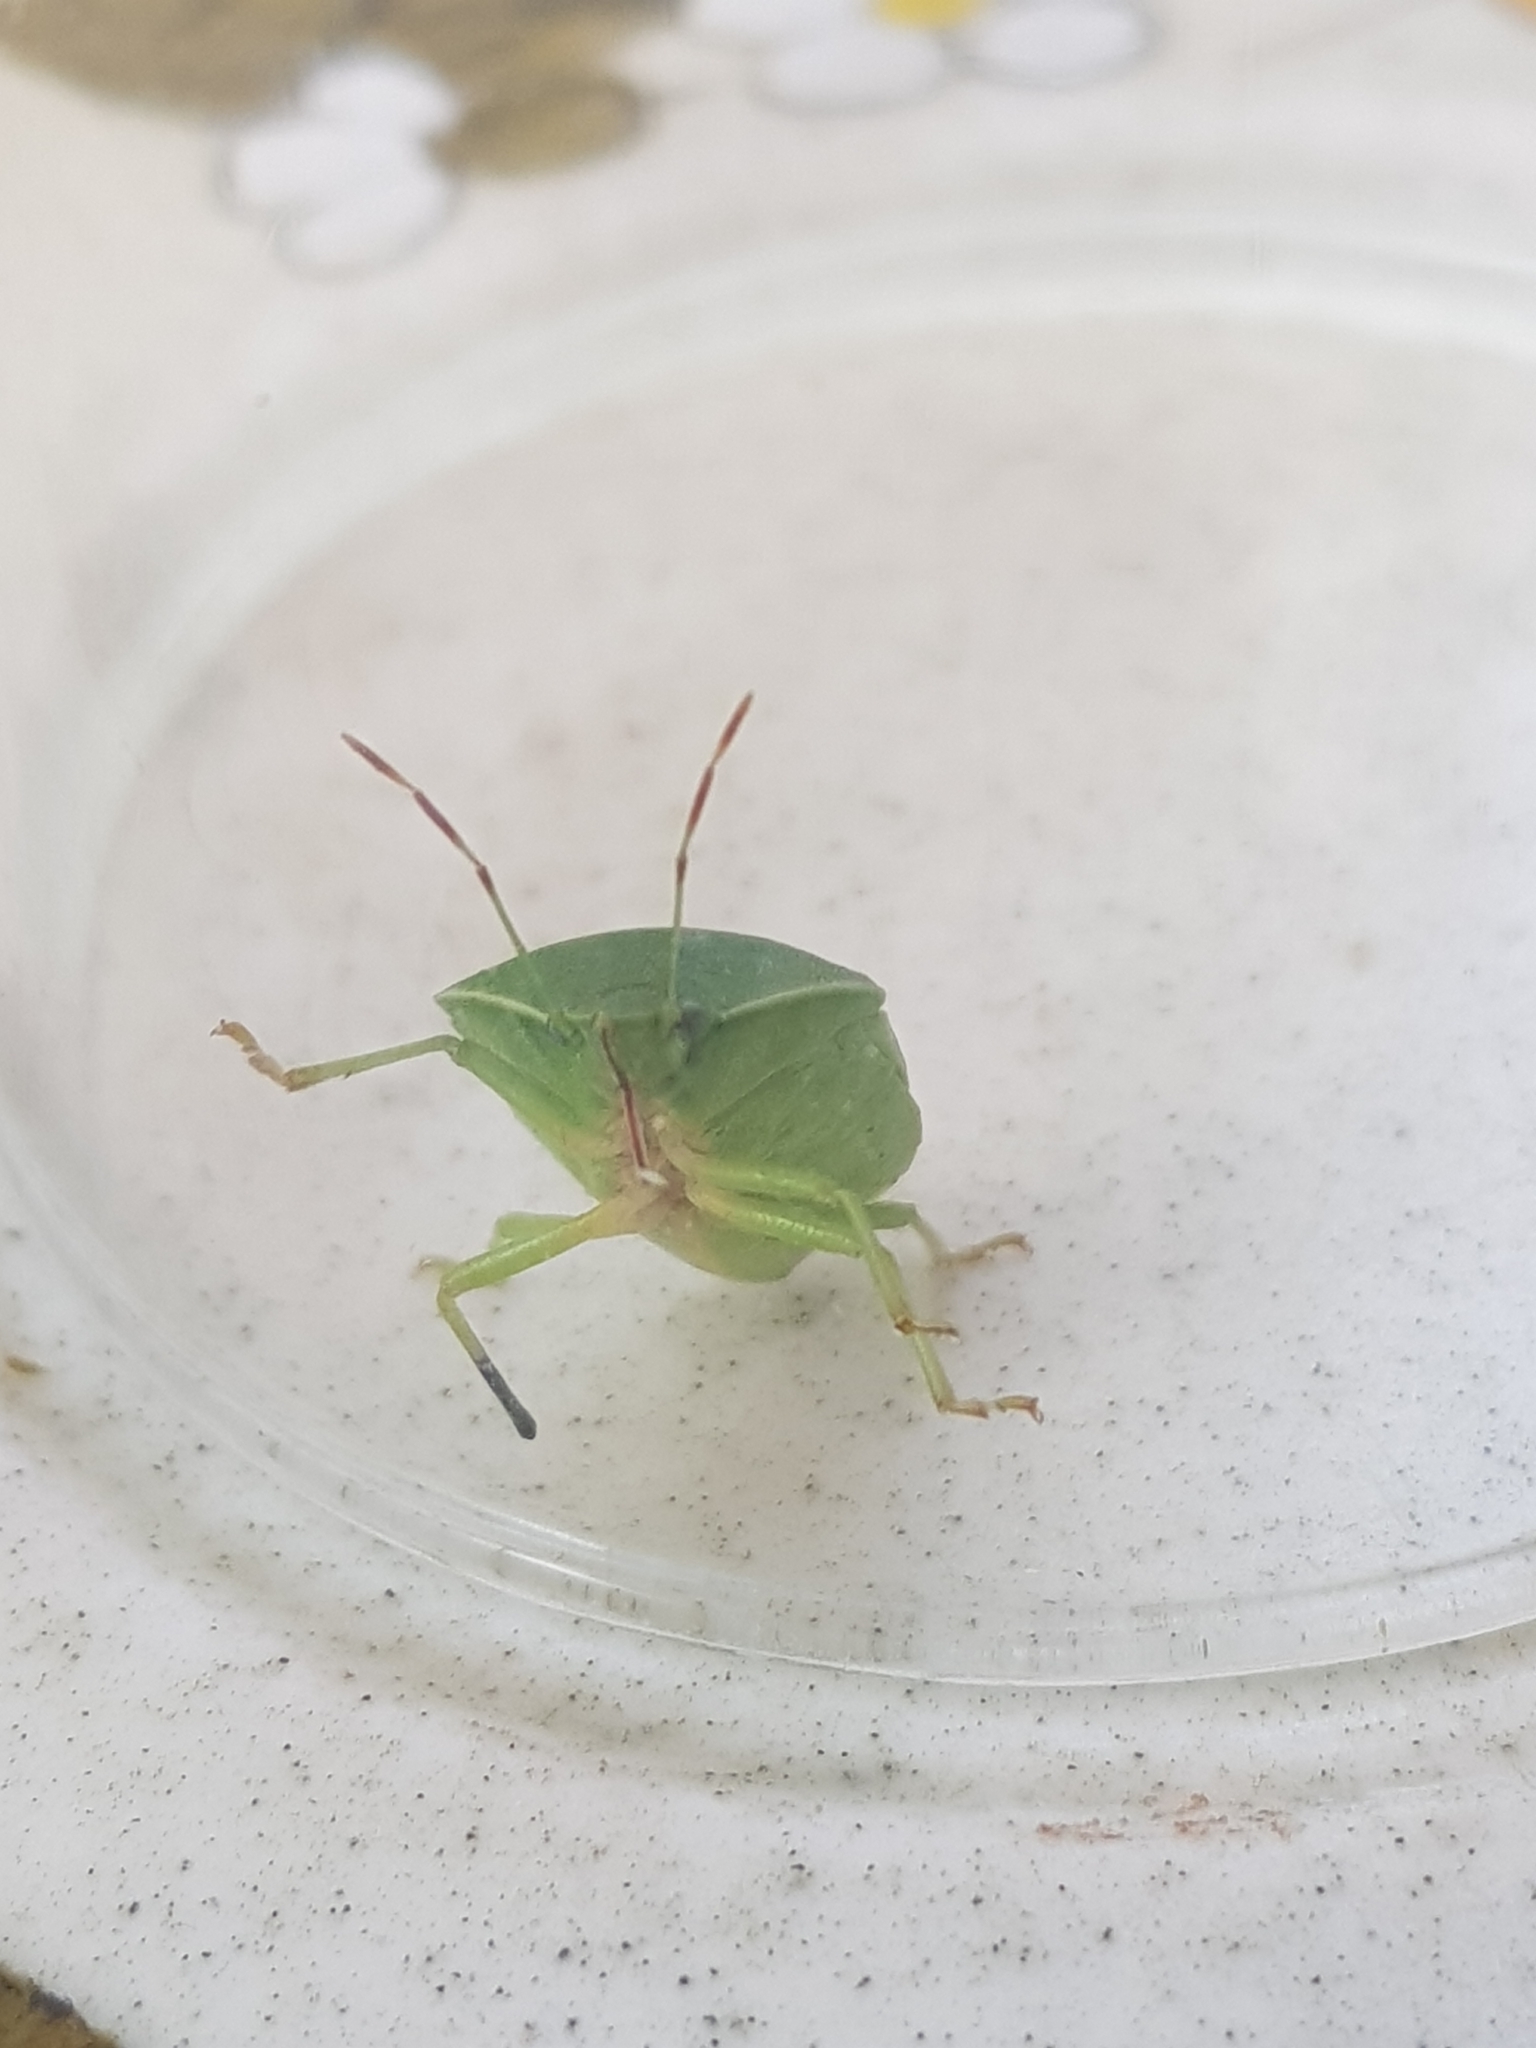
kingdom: Animalia
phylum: Arthropoda
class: Insecta
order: Hemiptera
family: Pentatomidae
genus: Nezara
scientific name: Nezara viridula
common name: Southern green stink bug
